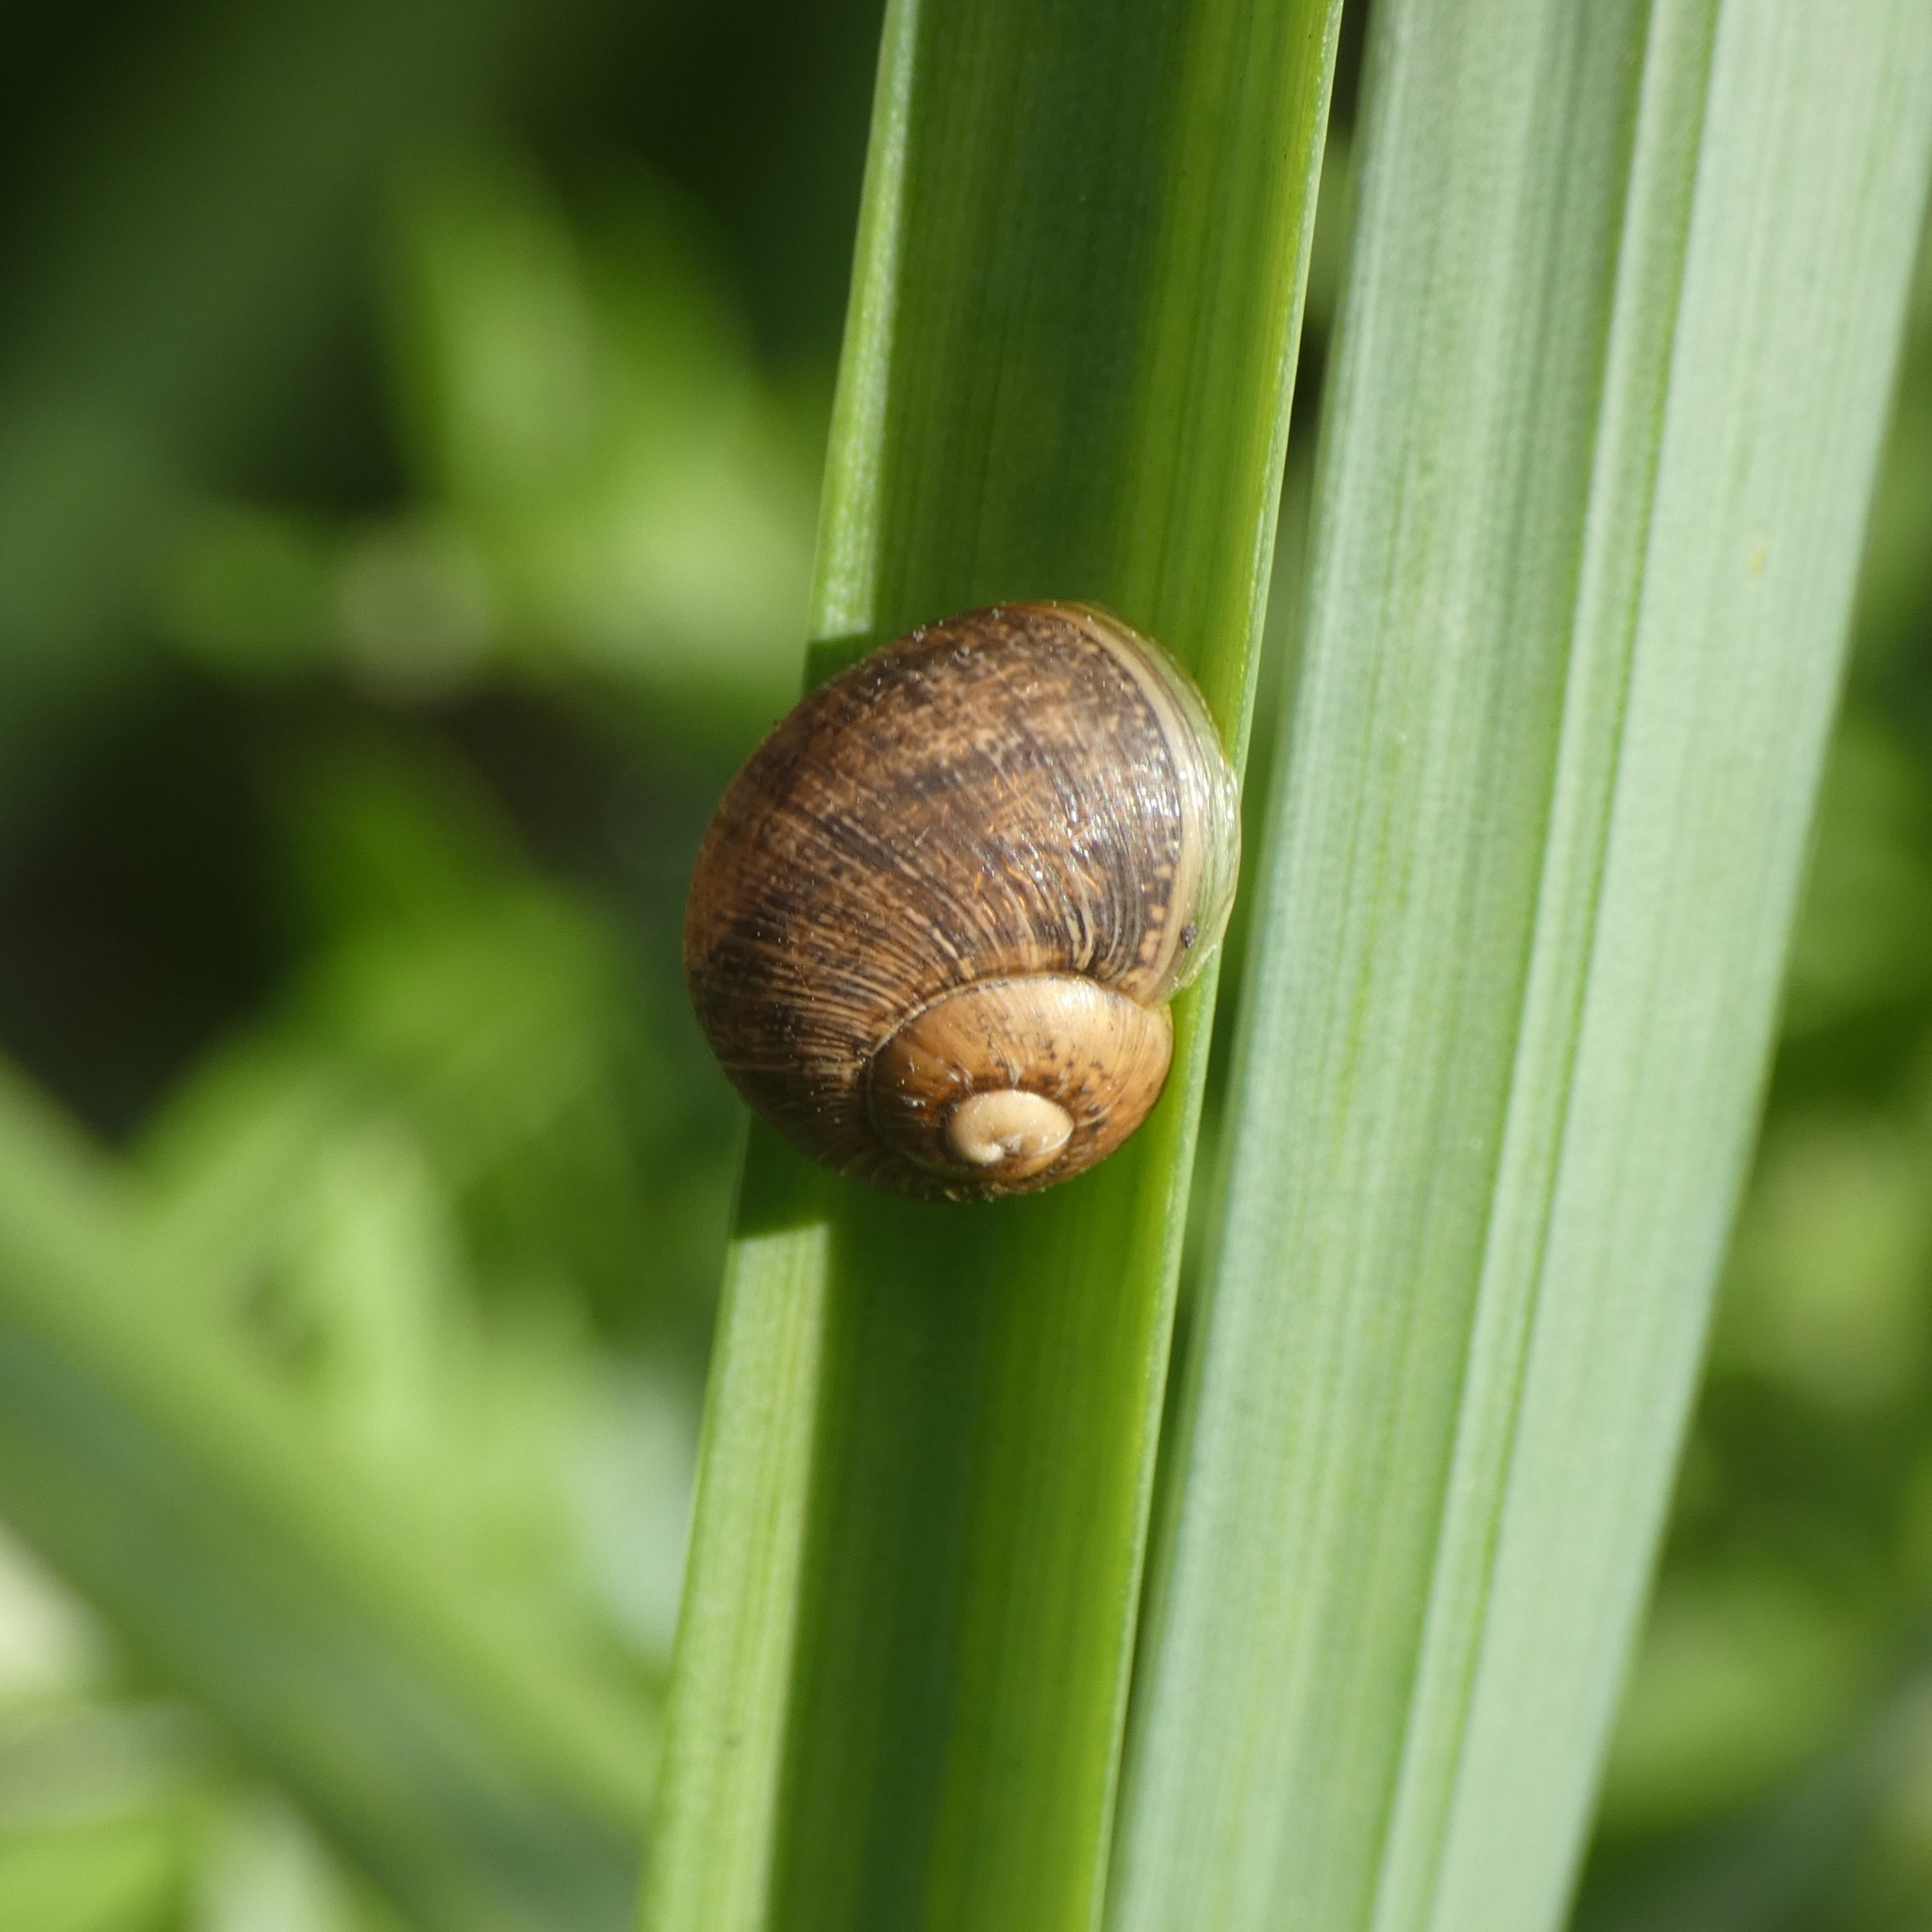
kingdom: Animalia
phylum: Mollusca
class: Gastropoda
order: Stylommatophora
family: Helicidae
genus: Cornu
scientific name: Cornu aspersum
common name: Brown garden snail
